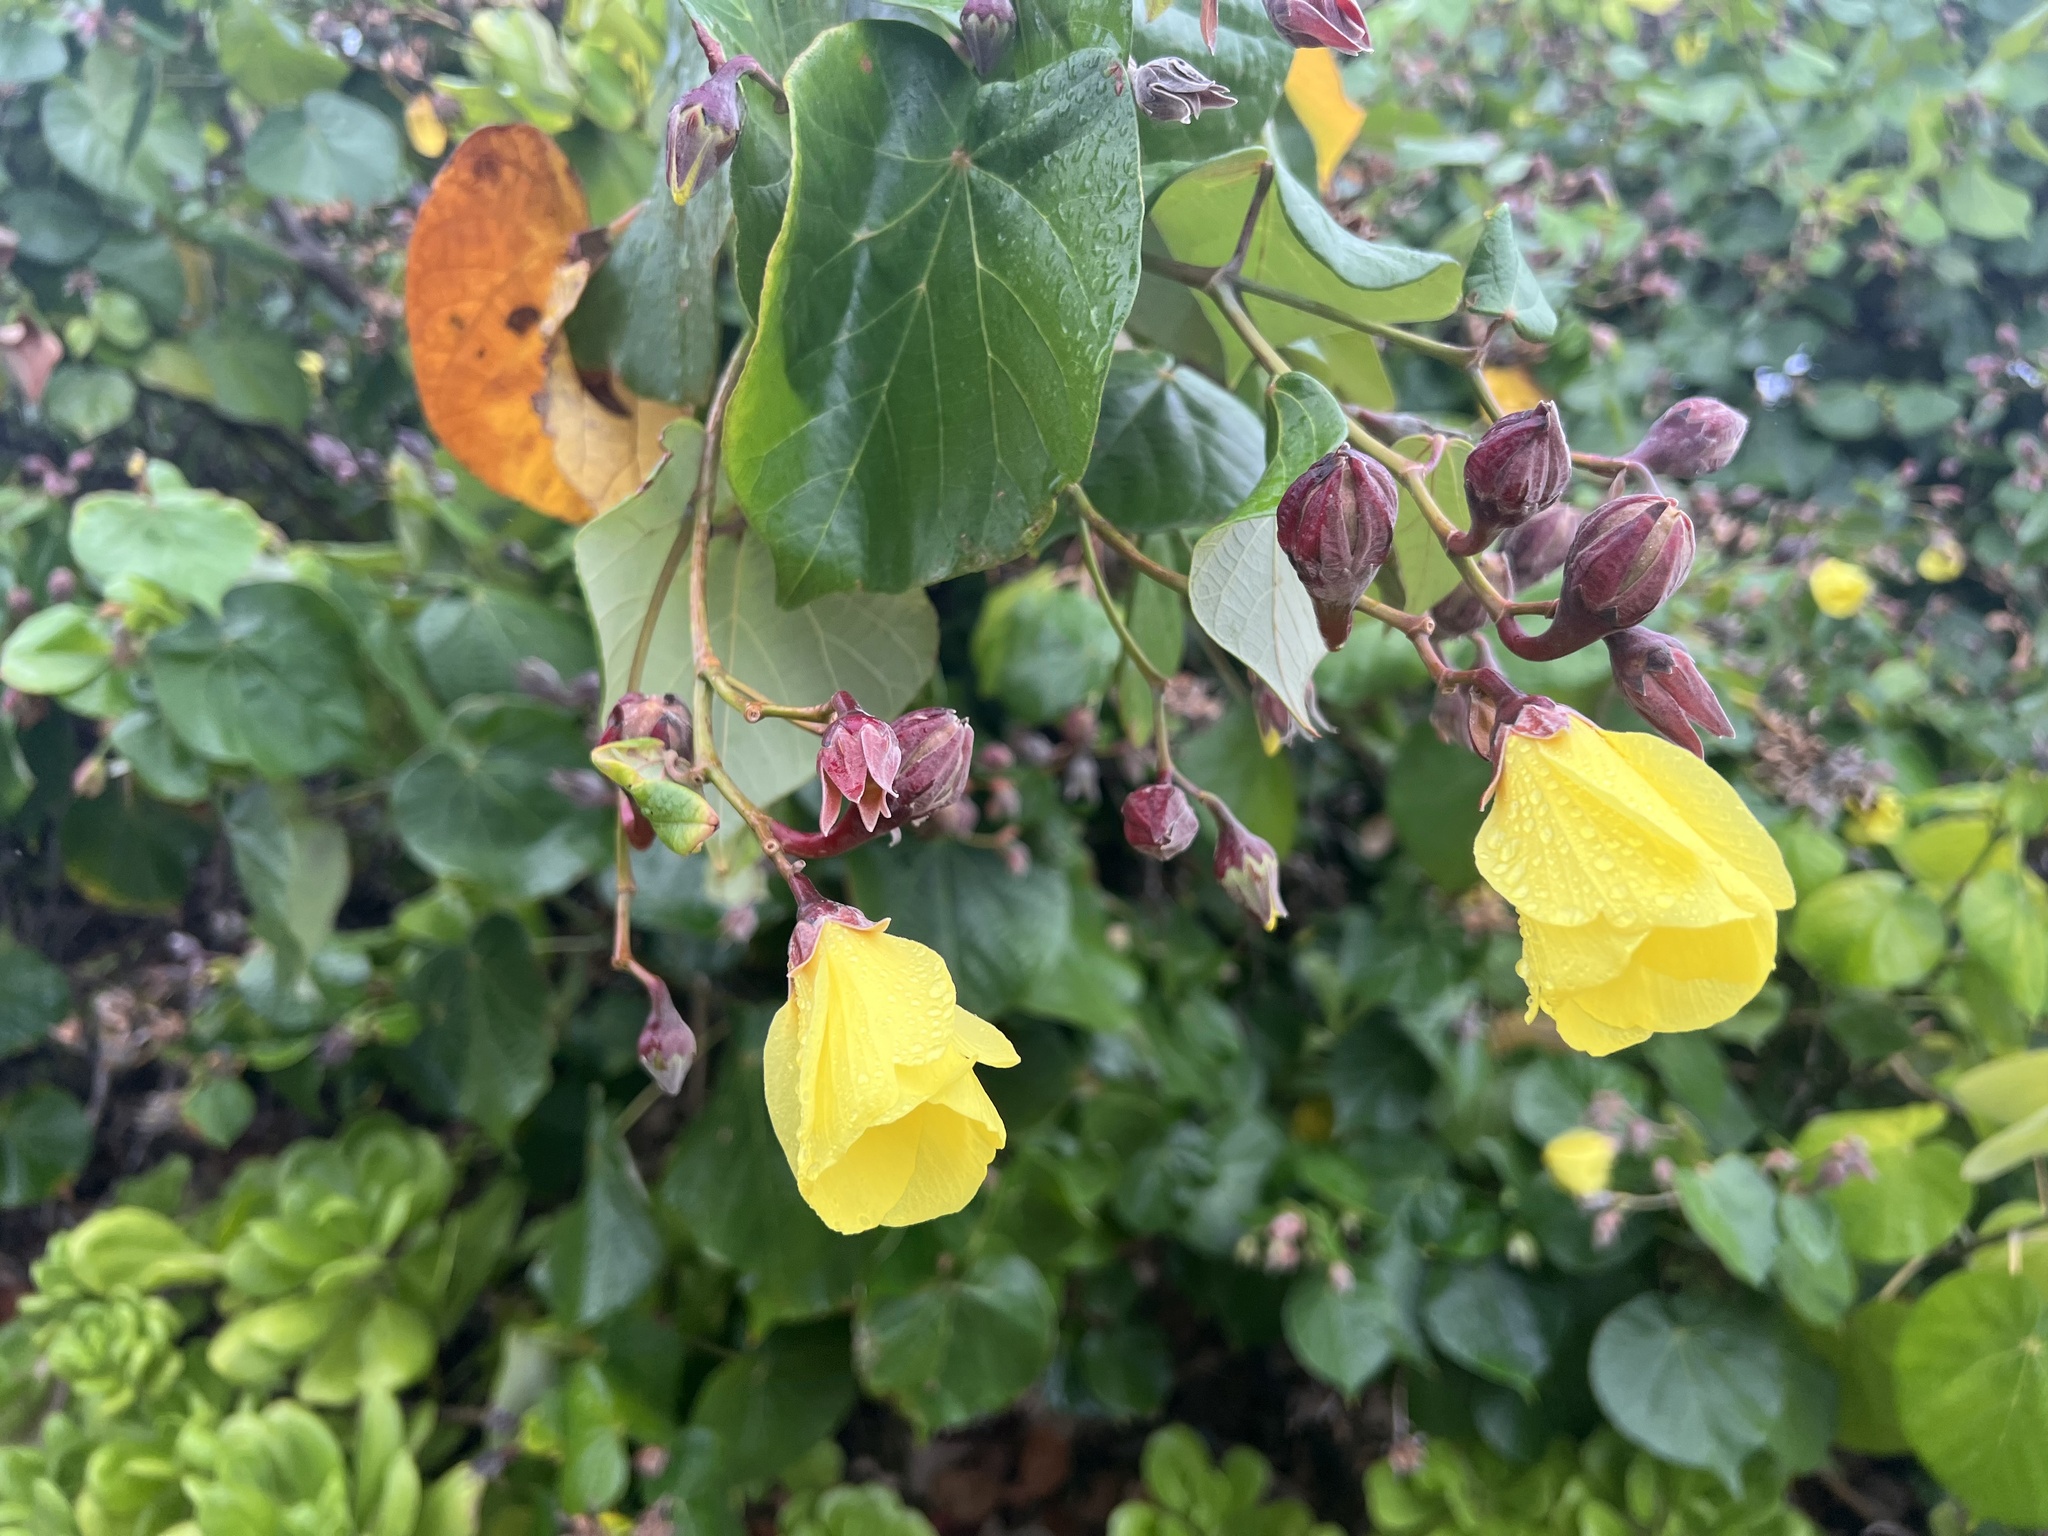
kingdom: Plantae
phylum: Tracheophyta
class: Magnoliopsida
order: Malvales
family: Malvaceae
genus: Talipariti
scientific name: Talipariti tiliaceum
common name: Sea hibiscus
